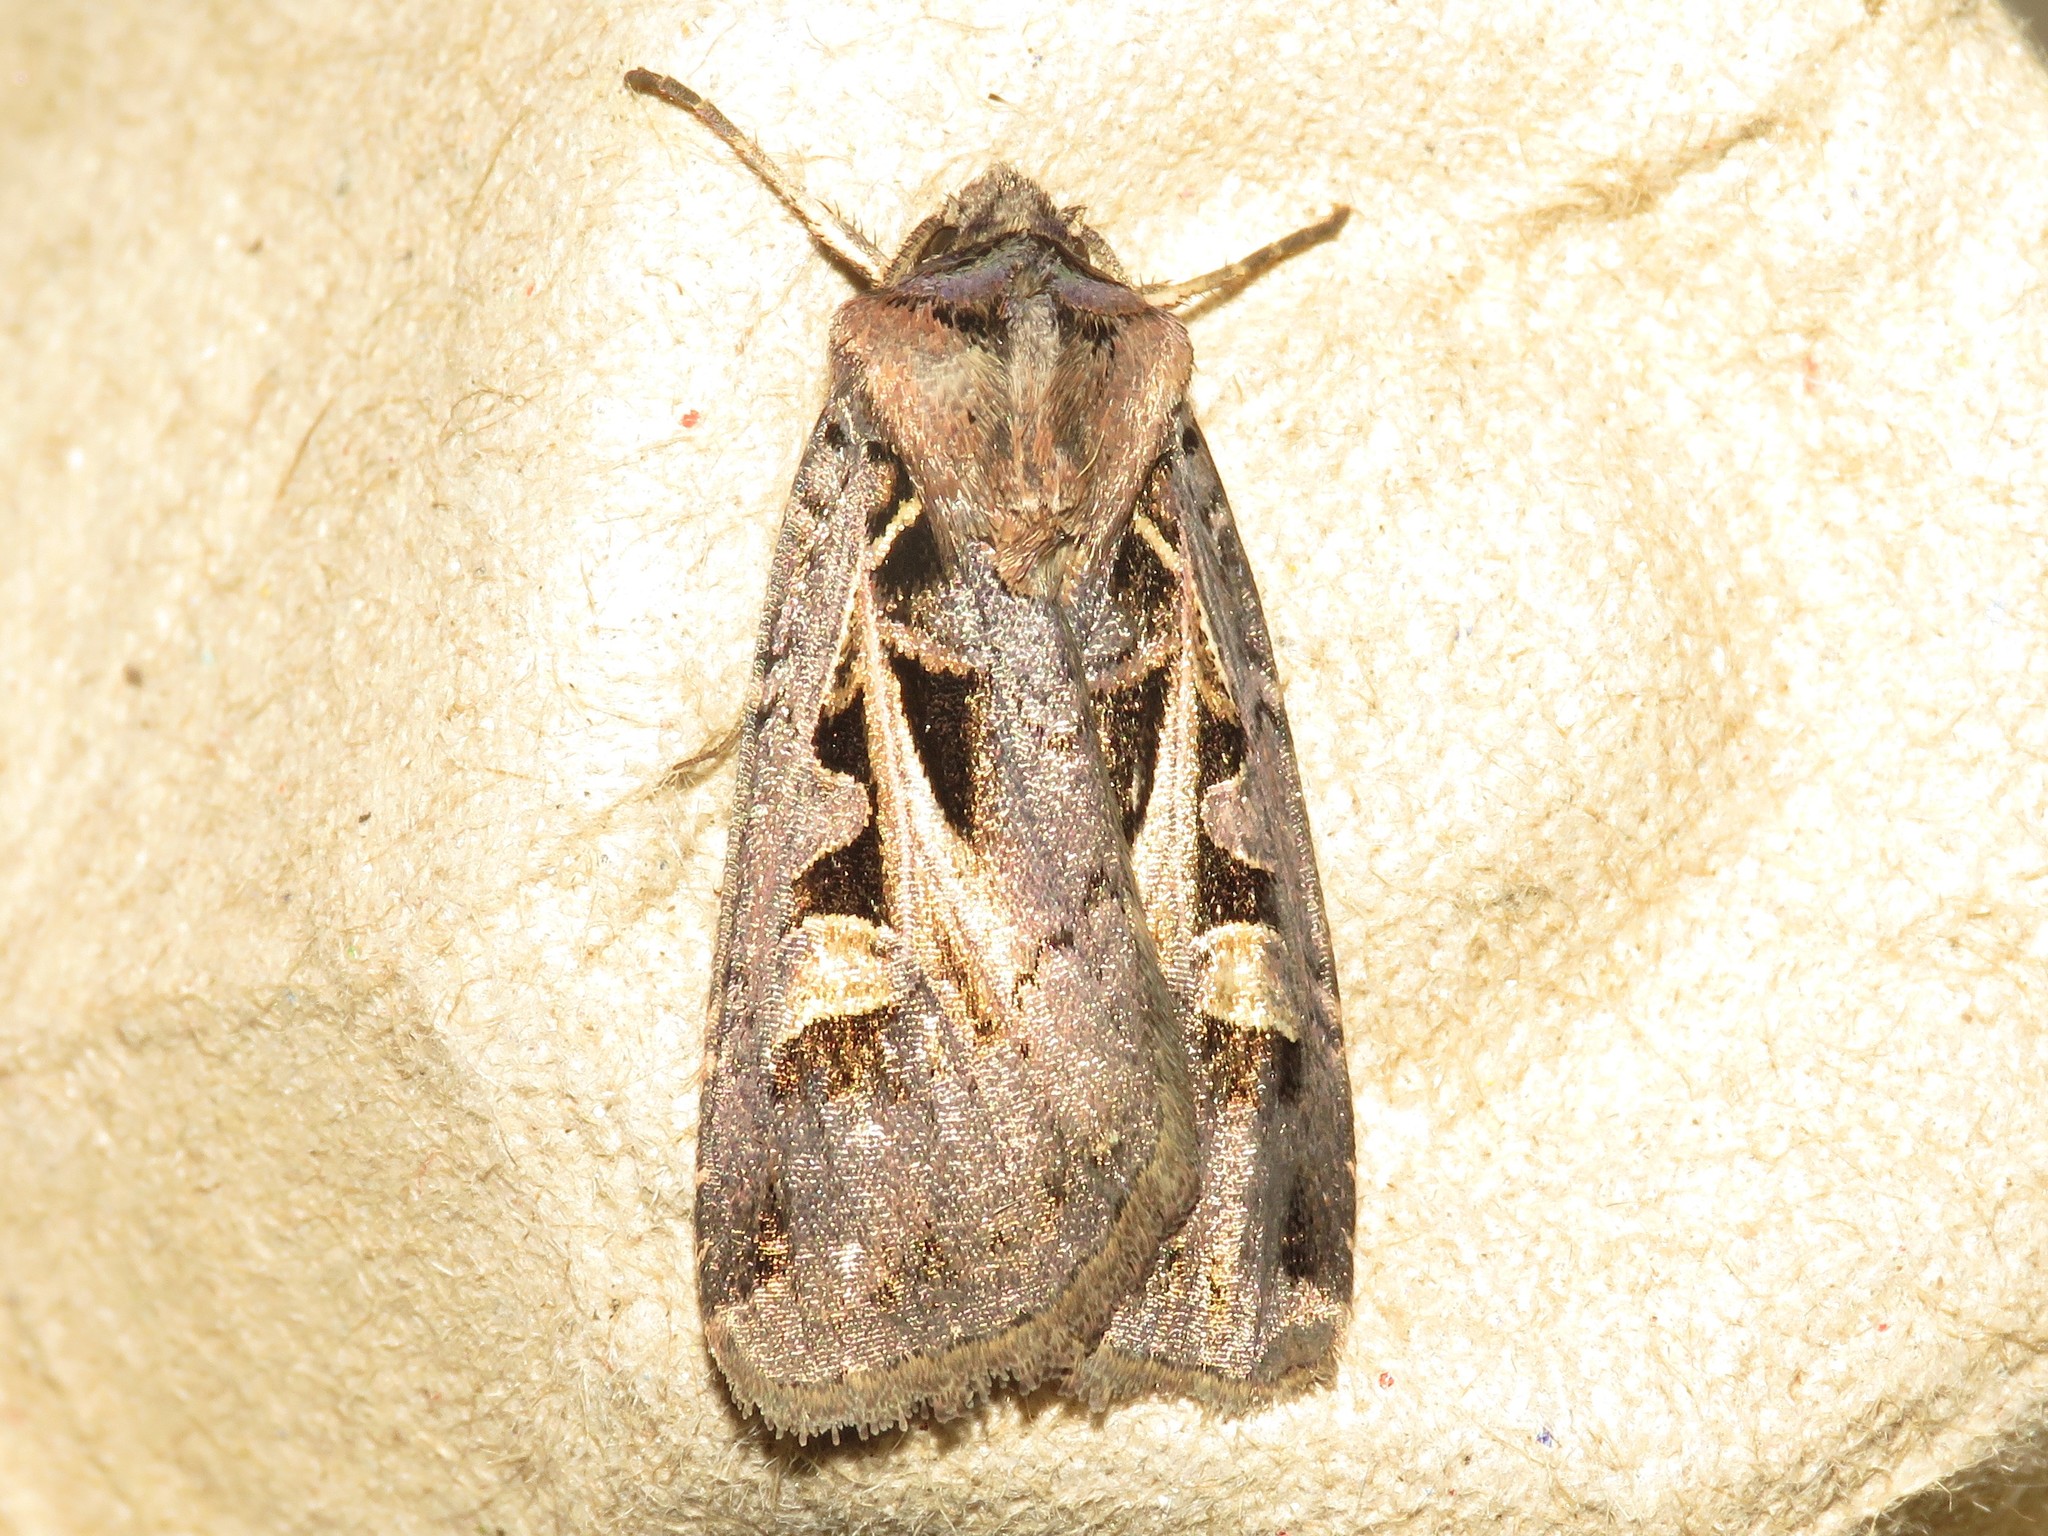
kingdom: Animalia
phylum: Arthropoda
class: Insecta
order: Lepidoptera
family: Noctuidae
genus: Feltia
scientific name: Feltia herilis
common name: Master's dart
